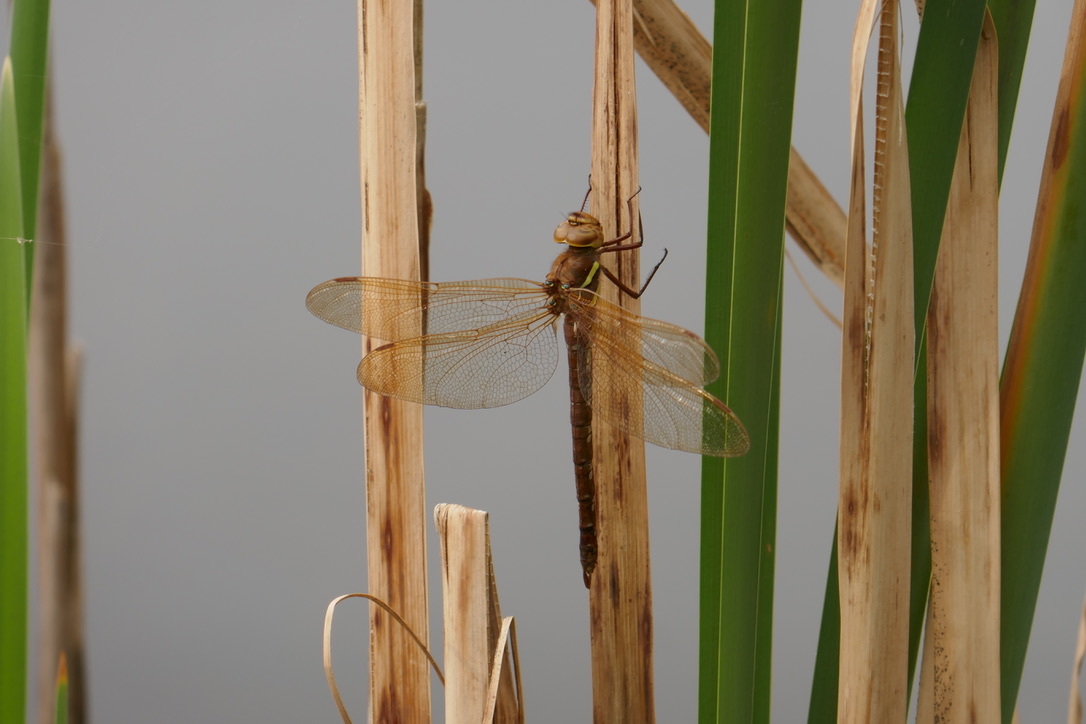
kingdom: Animalia
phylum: Arthropoda
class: Insecta
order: Odonata
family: Aeshnidae
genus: Aeshna
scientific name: Aeshna grandis
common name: Brown hawker
